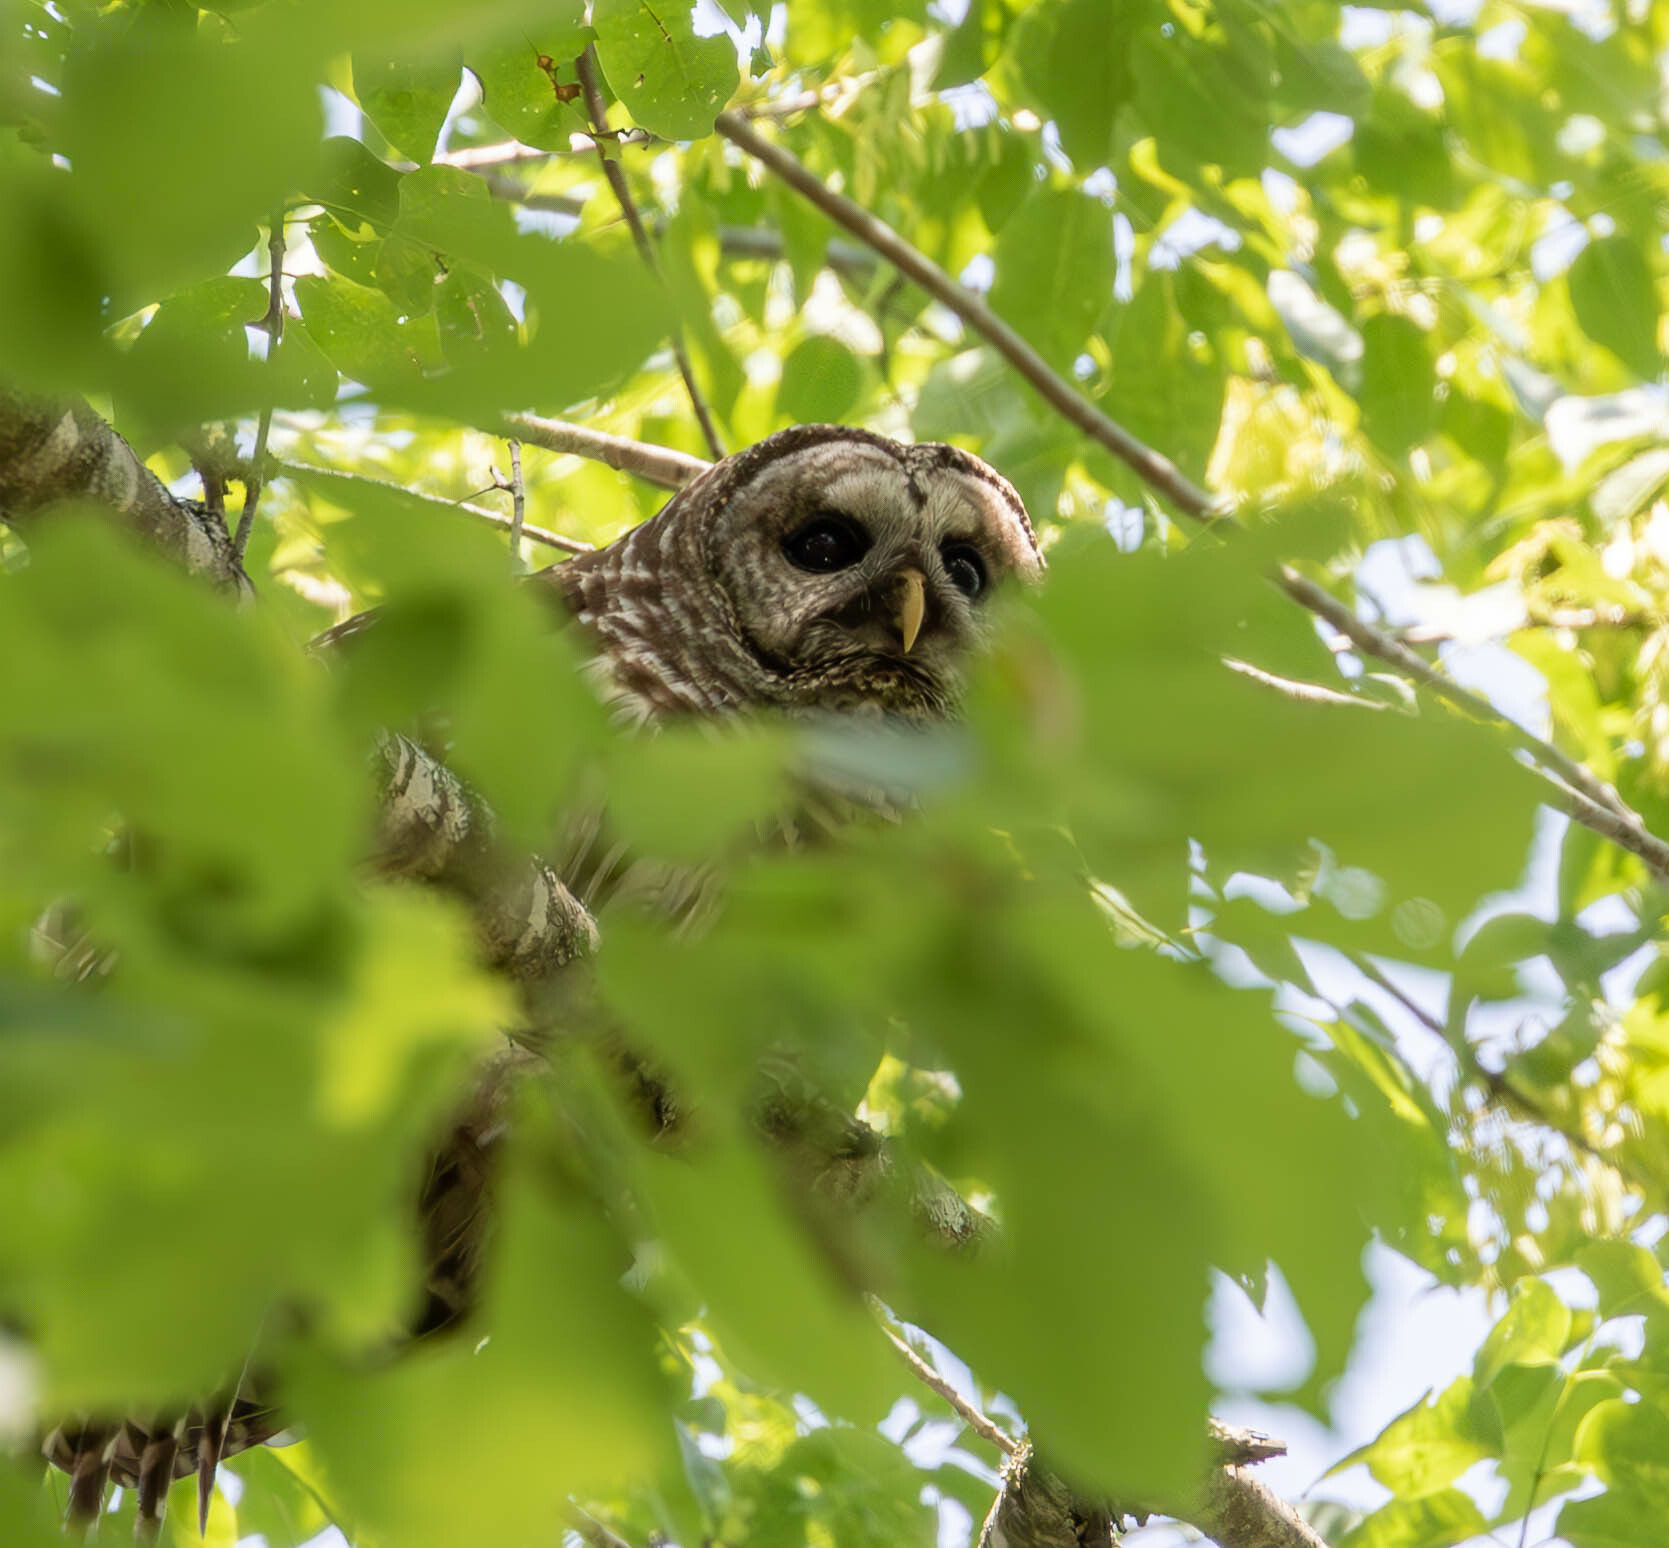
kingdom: Animalia
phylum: Chordata
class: Aves
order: Strigiformes
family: Strigidae
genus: Strix
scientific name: Strix varia
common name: Barred owl
